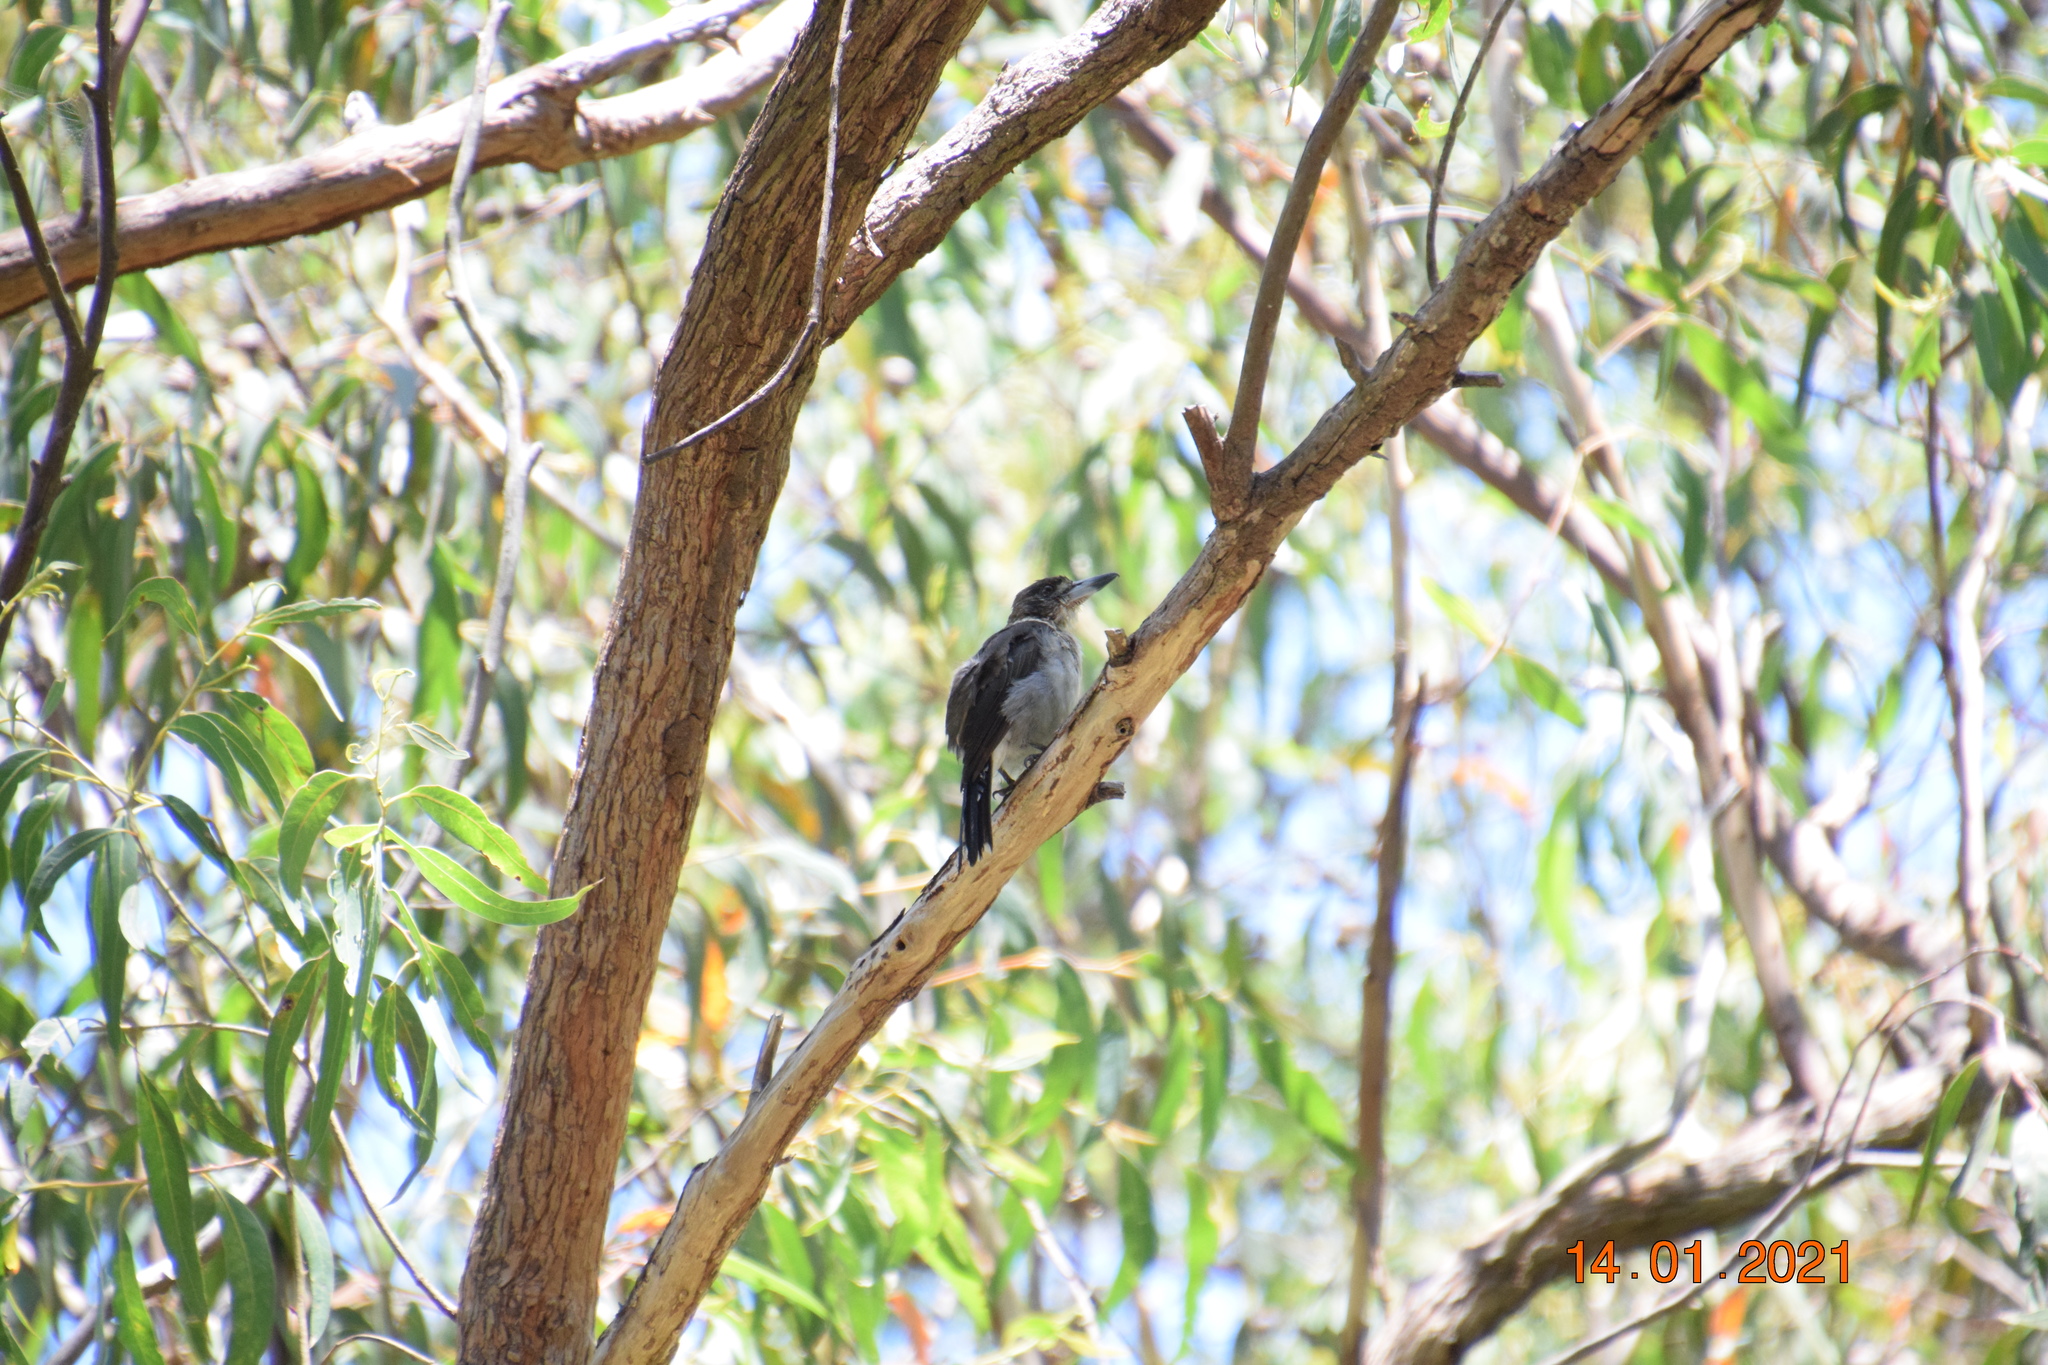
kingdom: Animalia
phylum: Chordata
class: Aves
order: Passeriformes
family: Cracticidae
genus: Cracticus
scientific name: Cracticus torquatus
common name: Grey butcherbird
